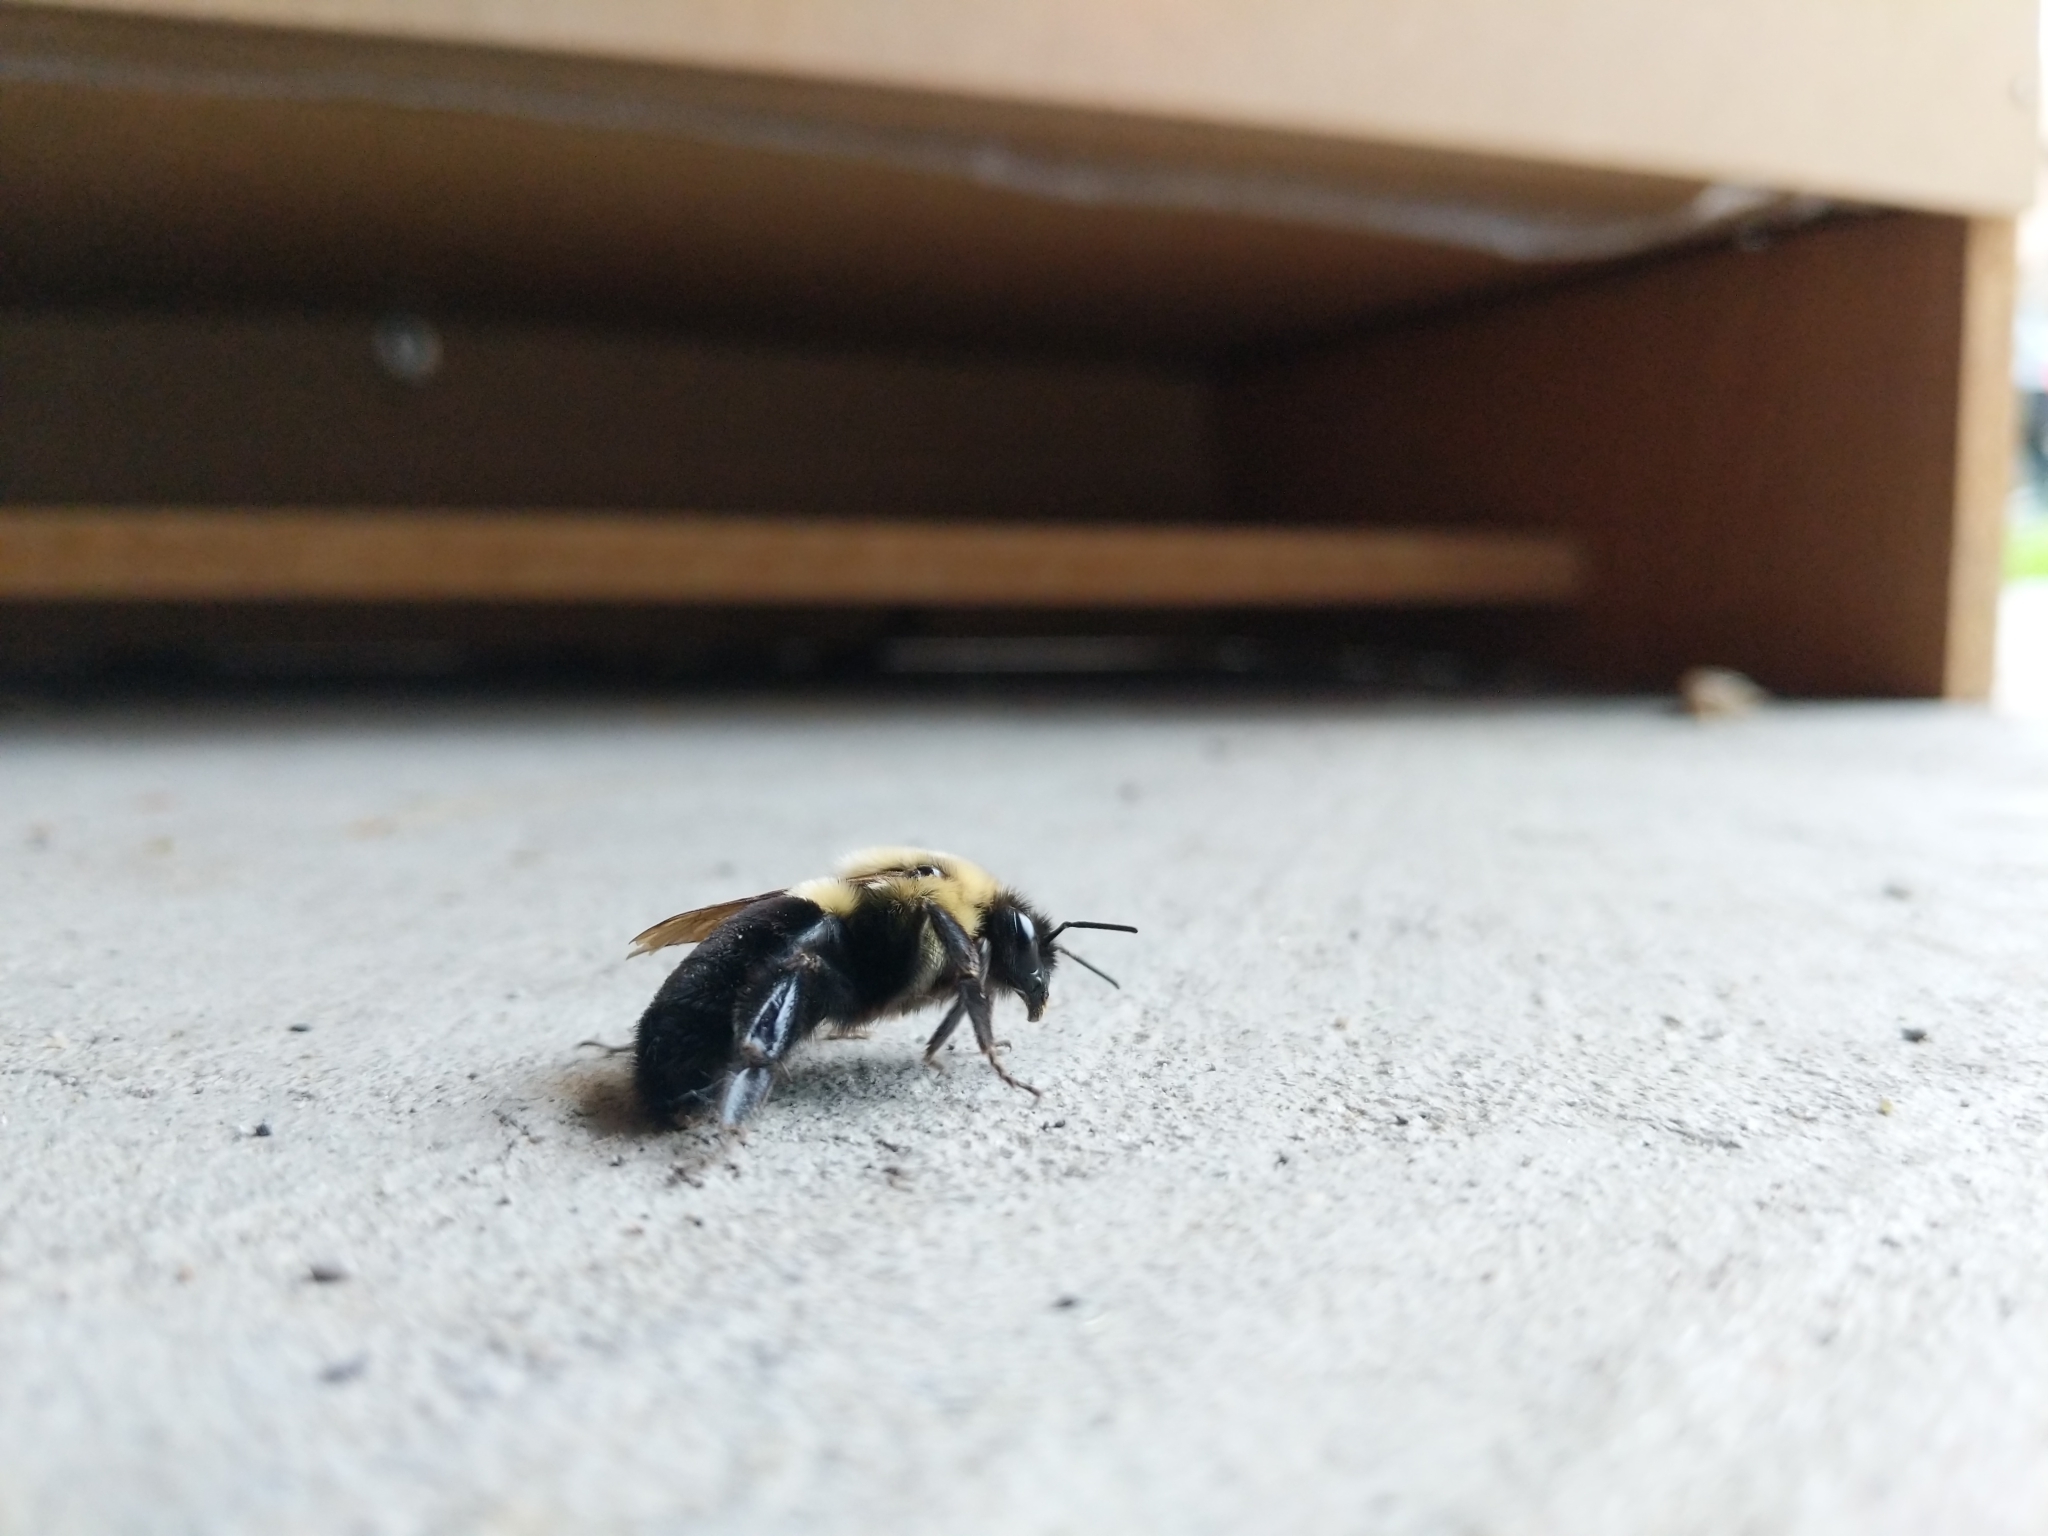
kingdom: Animalia
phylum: Arthropoda
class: Insecta
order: Hymenoptera
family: Apidae
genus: Bombus
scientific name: Bombus impatiens
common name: Common eastern bumble bee
